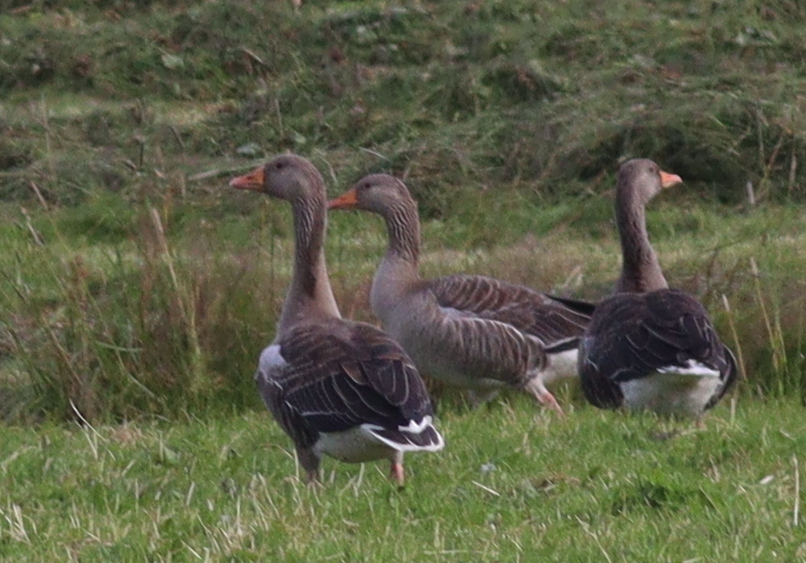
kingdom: Animalia
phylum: Chordata
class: Aves
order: Anseriformes
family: Anatidae
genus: Anser
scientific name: Anser anser
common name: Greylag goose
